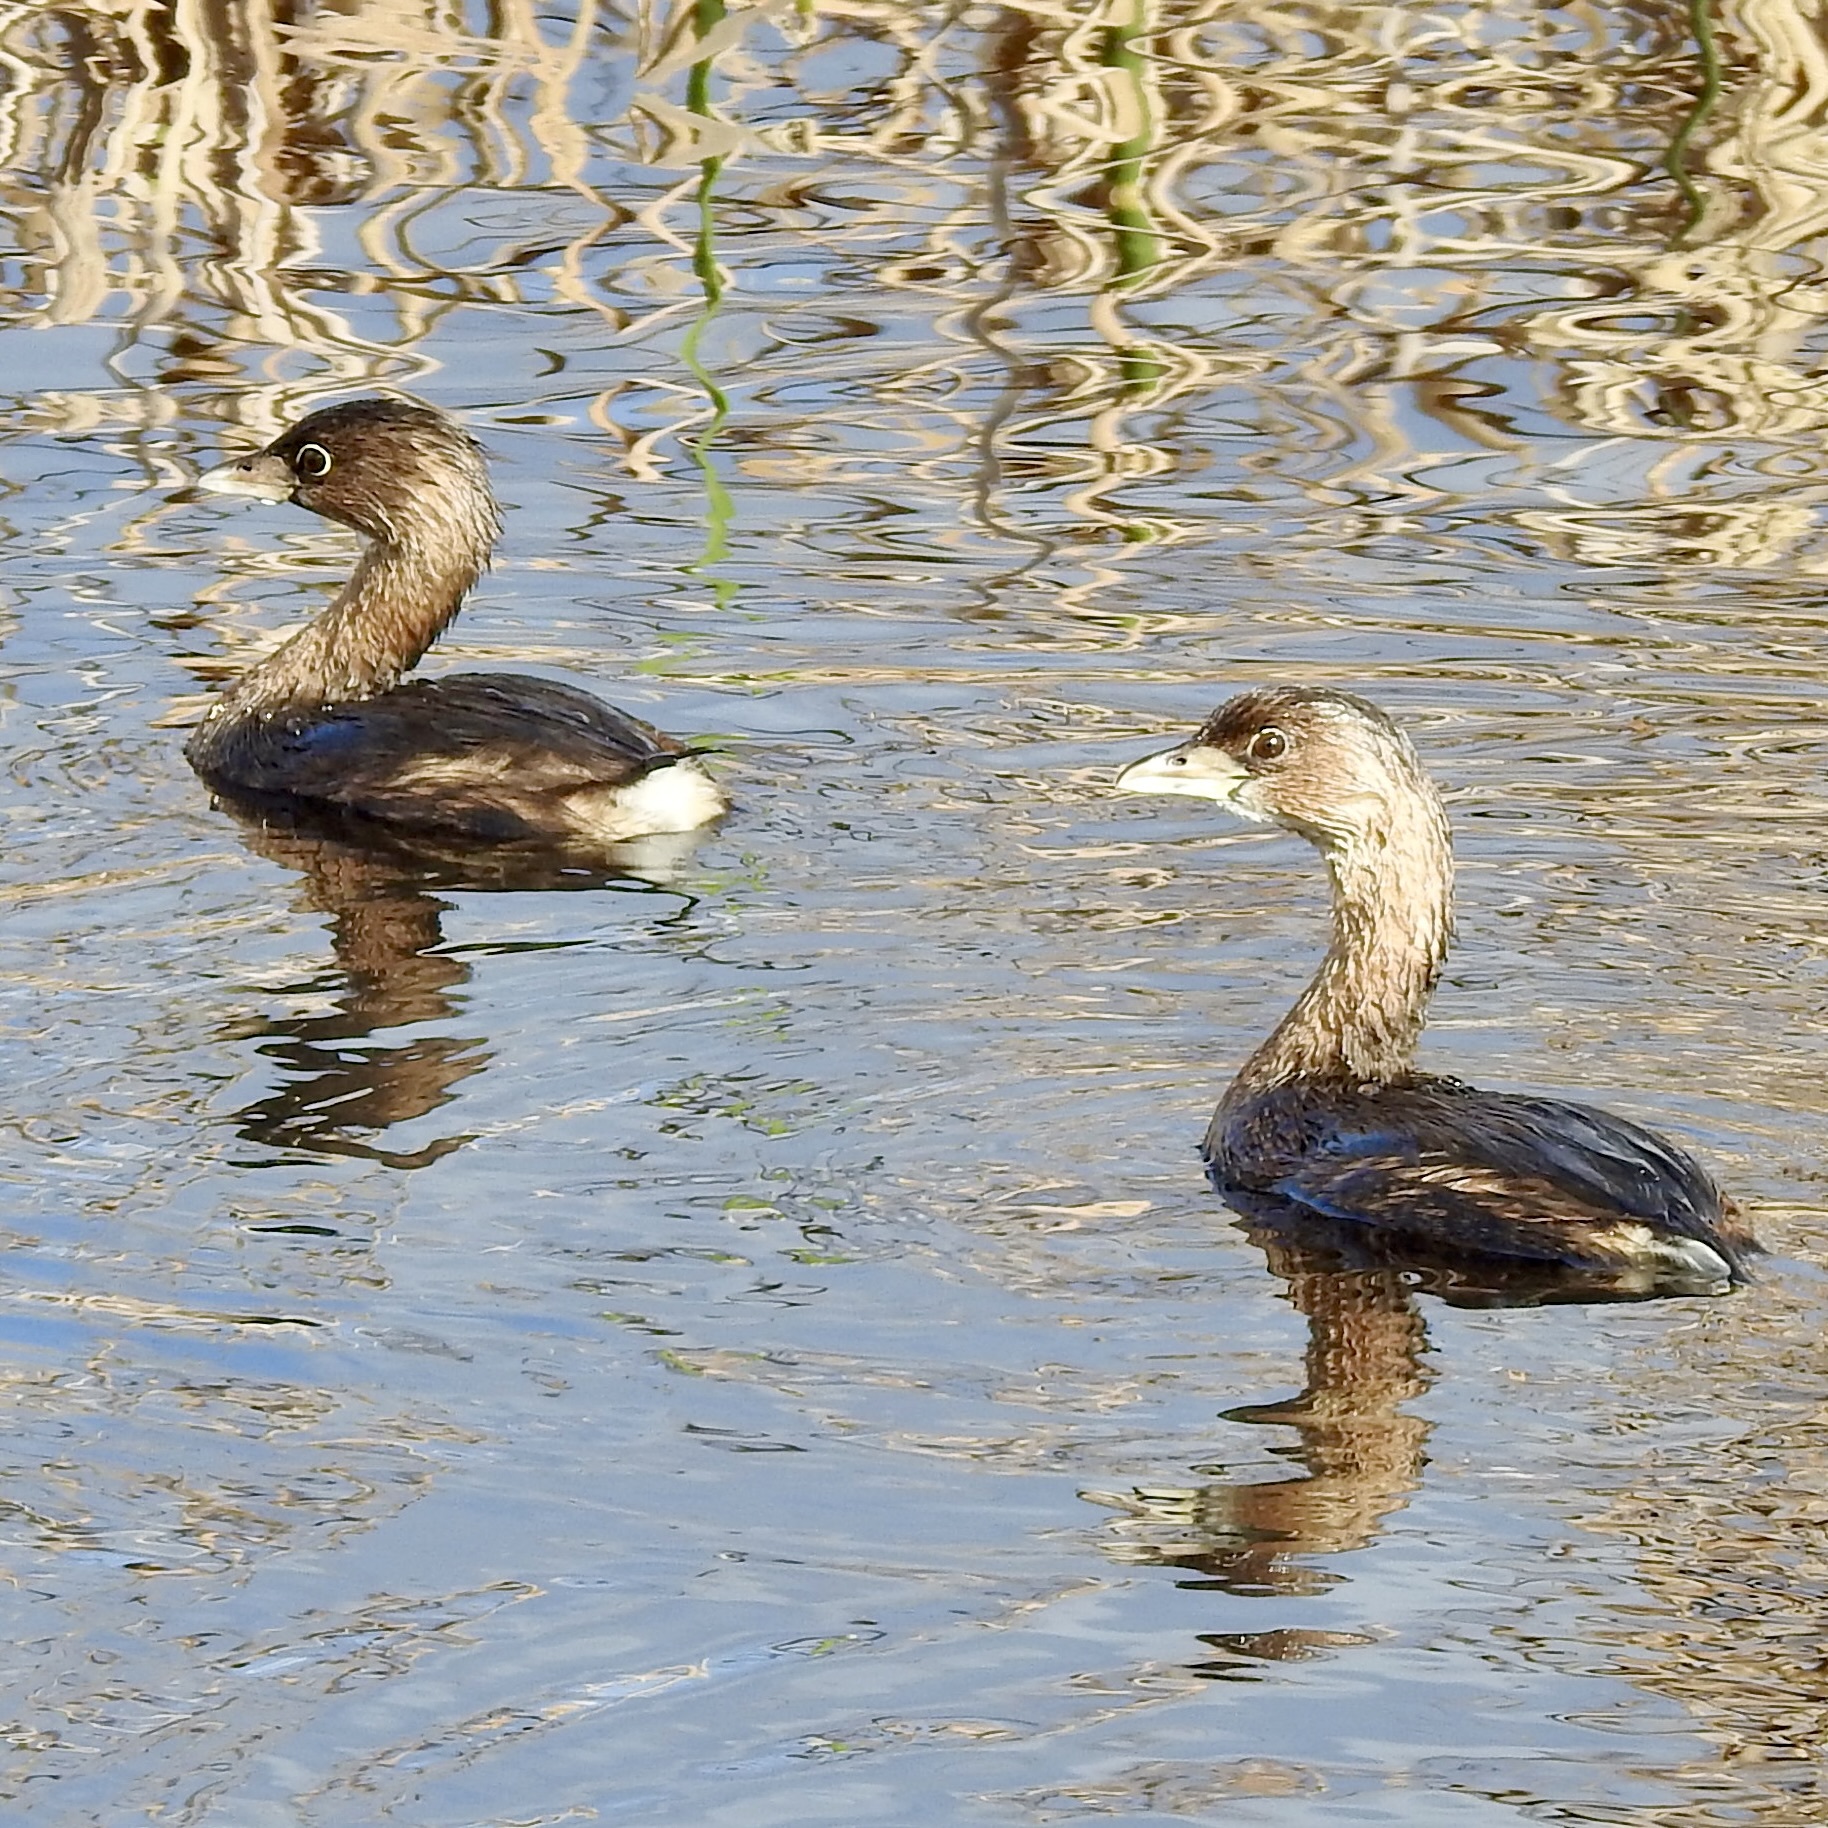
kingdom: Animalia
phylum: Chordata
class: Aves
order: Podicipediformes
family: Podicipedidae
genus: Podilymbus
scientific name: Podilymbus podiceps
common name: Pied-billed grebe
